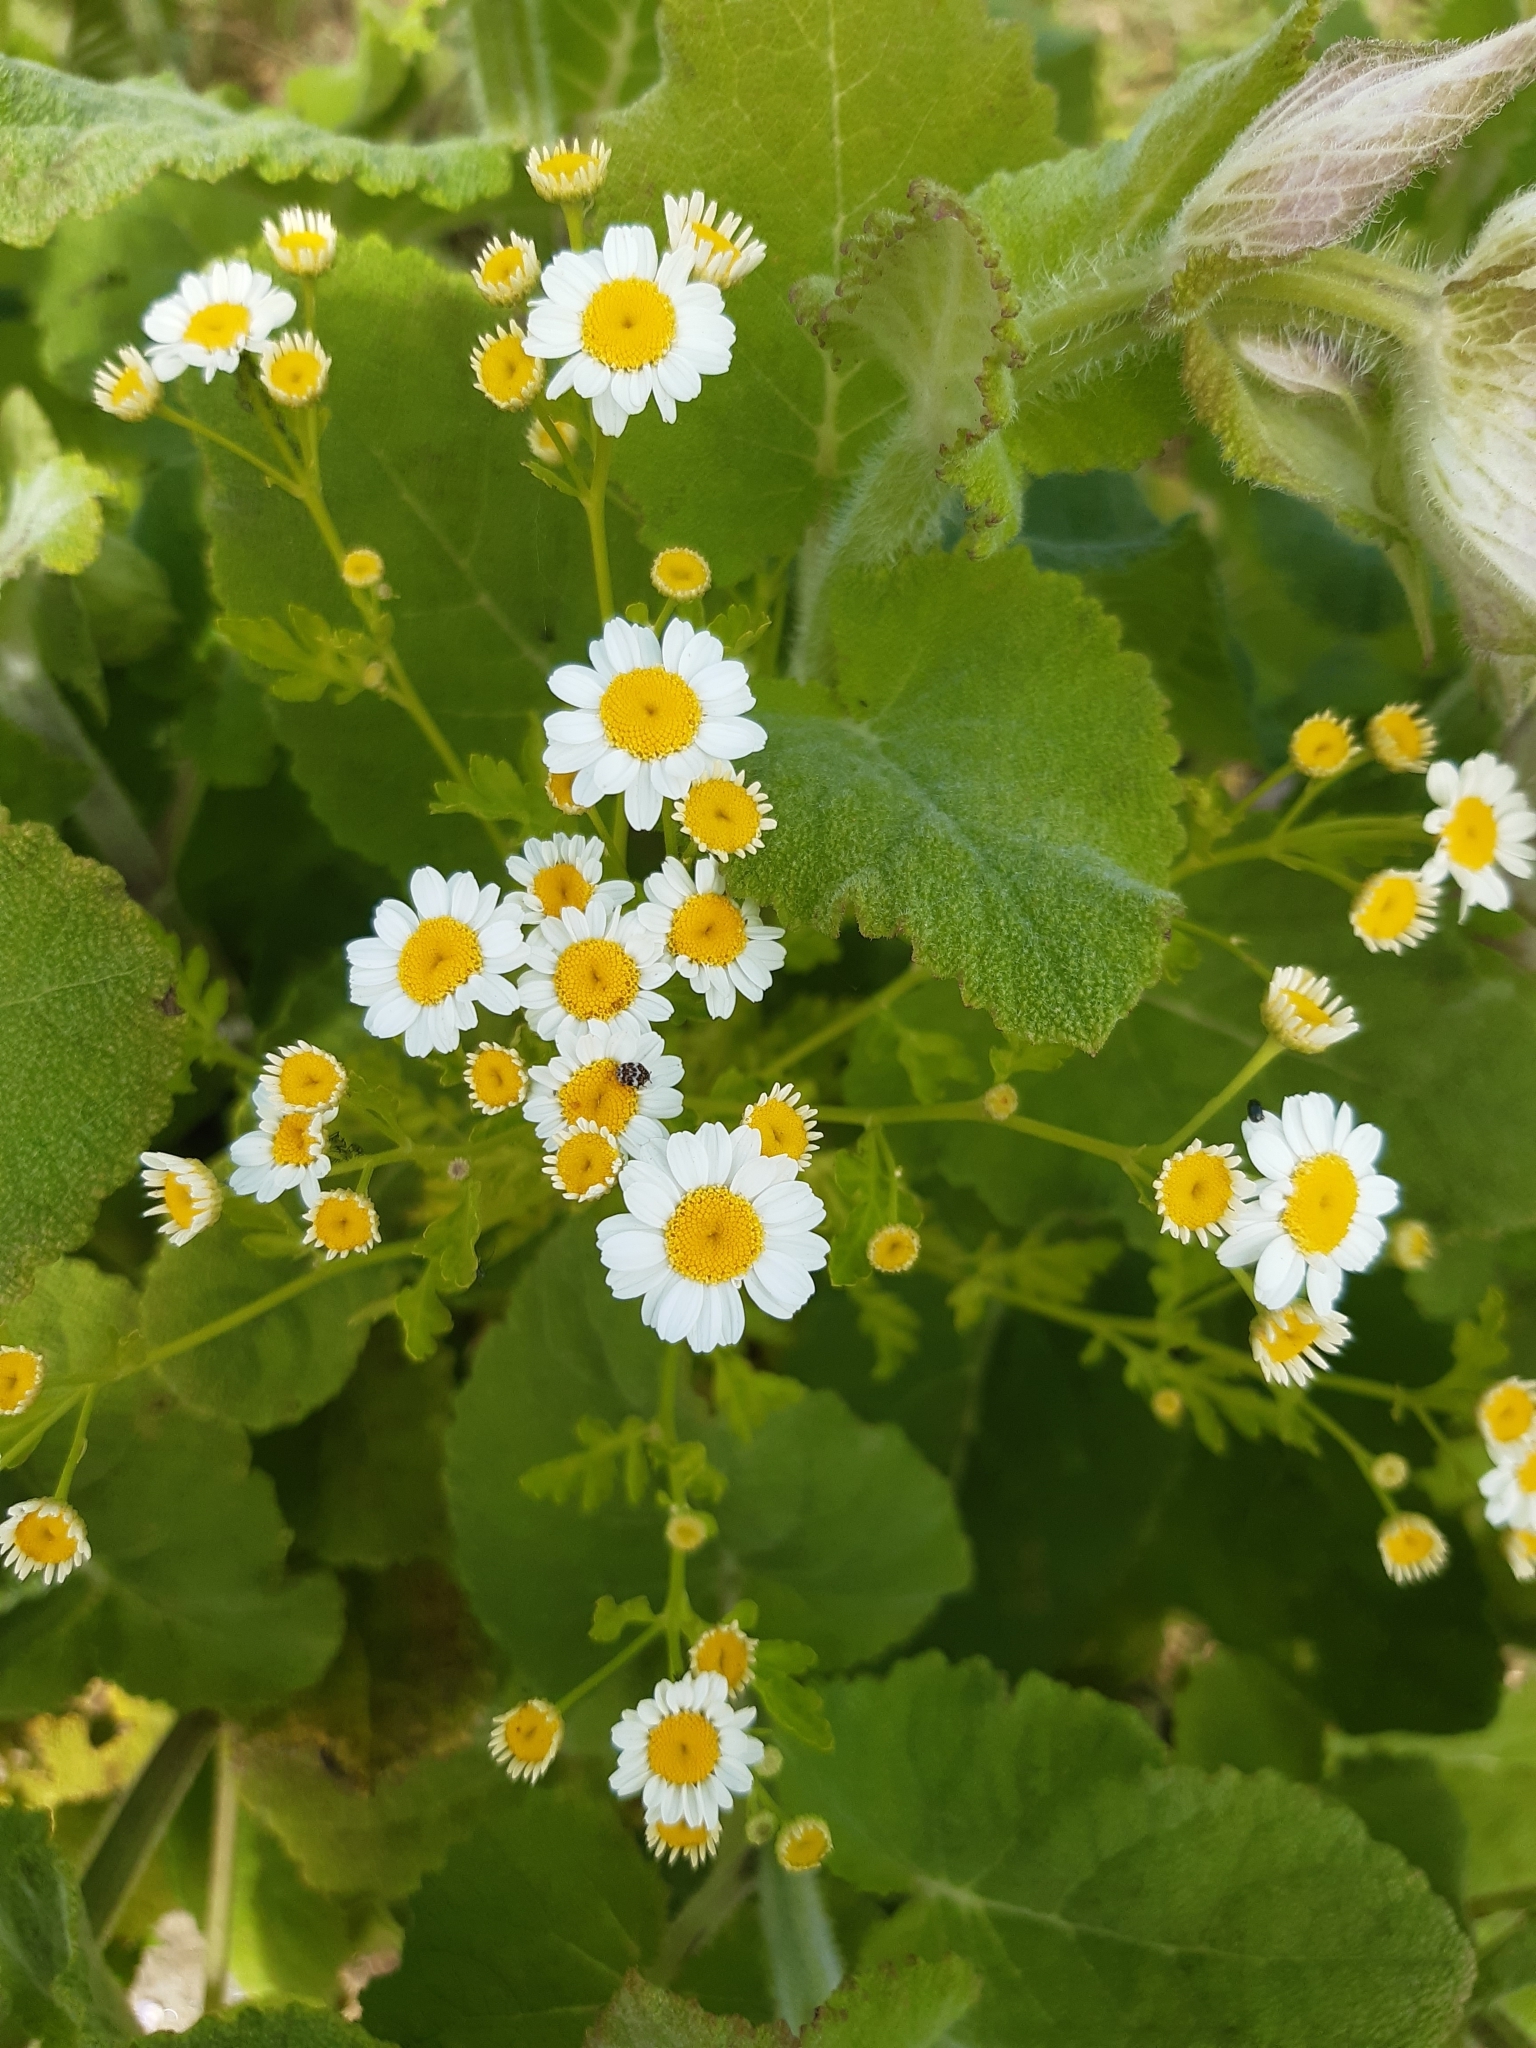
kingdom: Plantae
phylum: Tracheophyta
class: Magnoliopsida
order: Asterales
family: Asteraceae
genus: Tanacetum
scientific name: Tanacetum parthenium
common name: Feverfew
